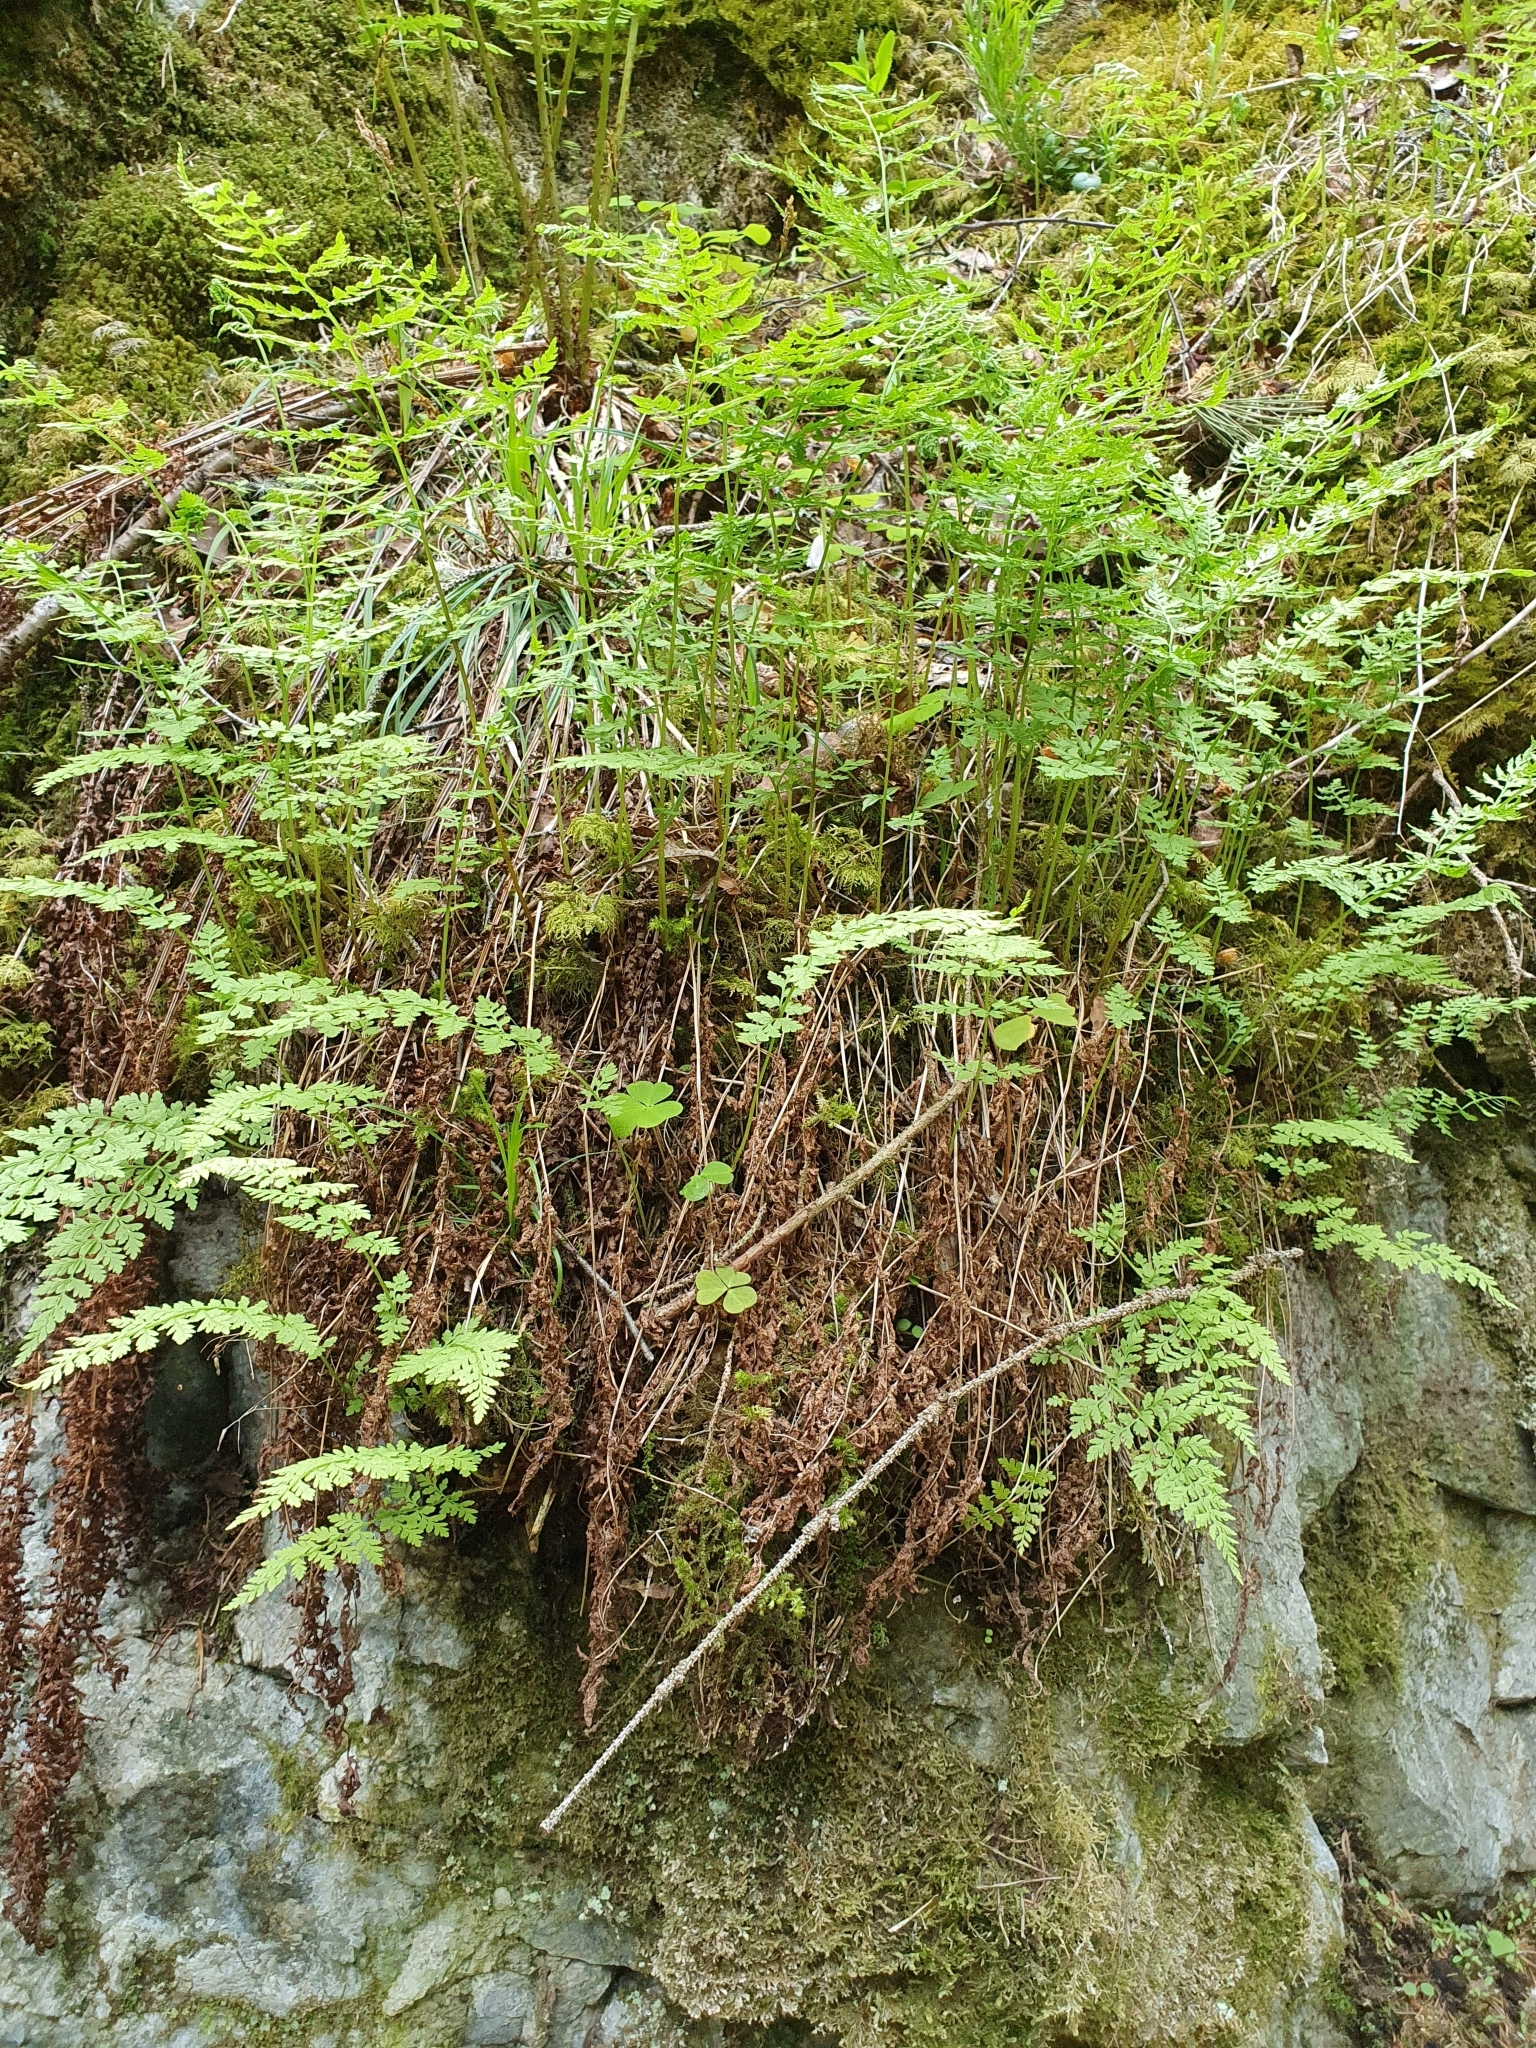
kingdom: Plantae
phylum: Tracheophyta
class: Polypodiopsida
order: Polypodiales
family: Cystopteridaceae
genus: Cystopteris
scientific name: Cystopteris fragilis
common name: Brittle bladder fern
